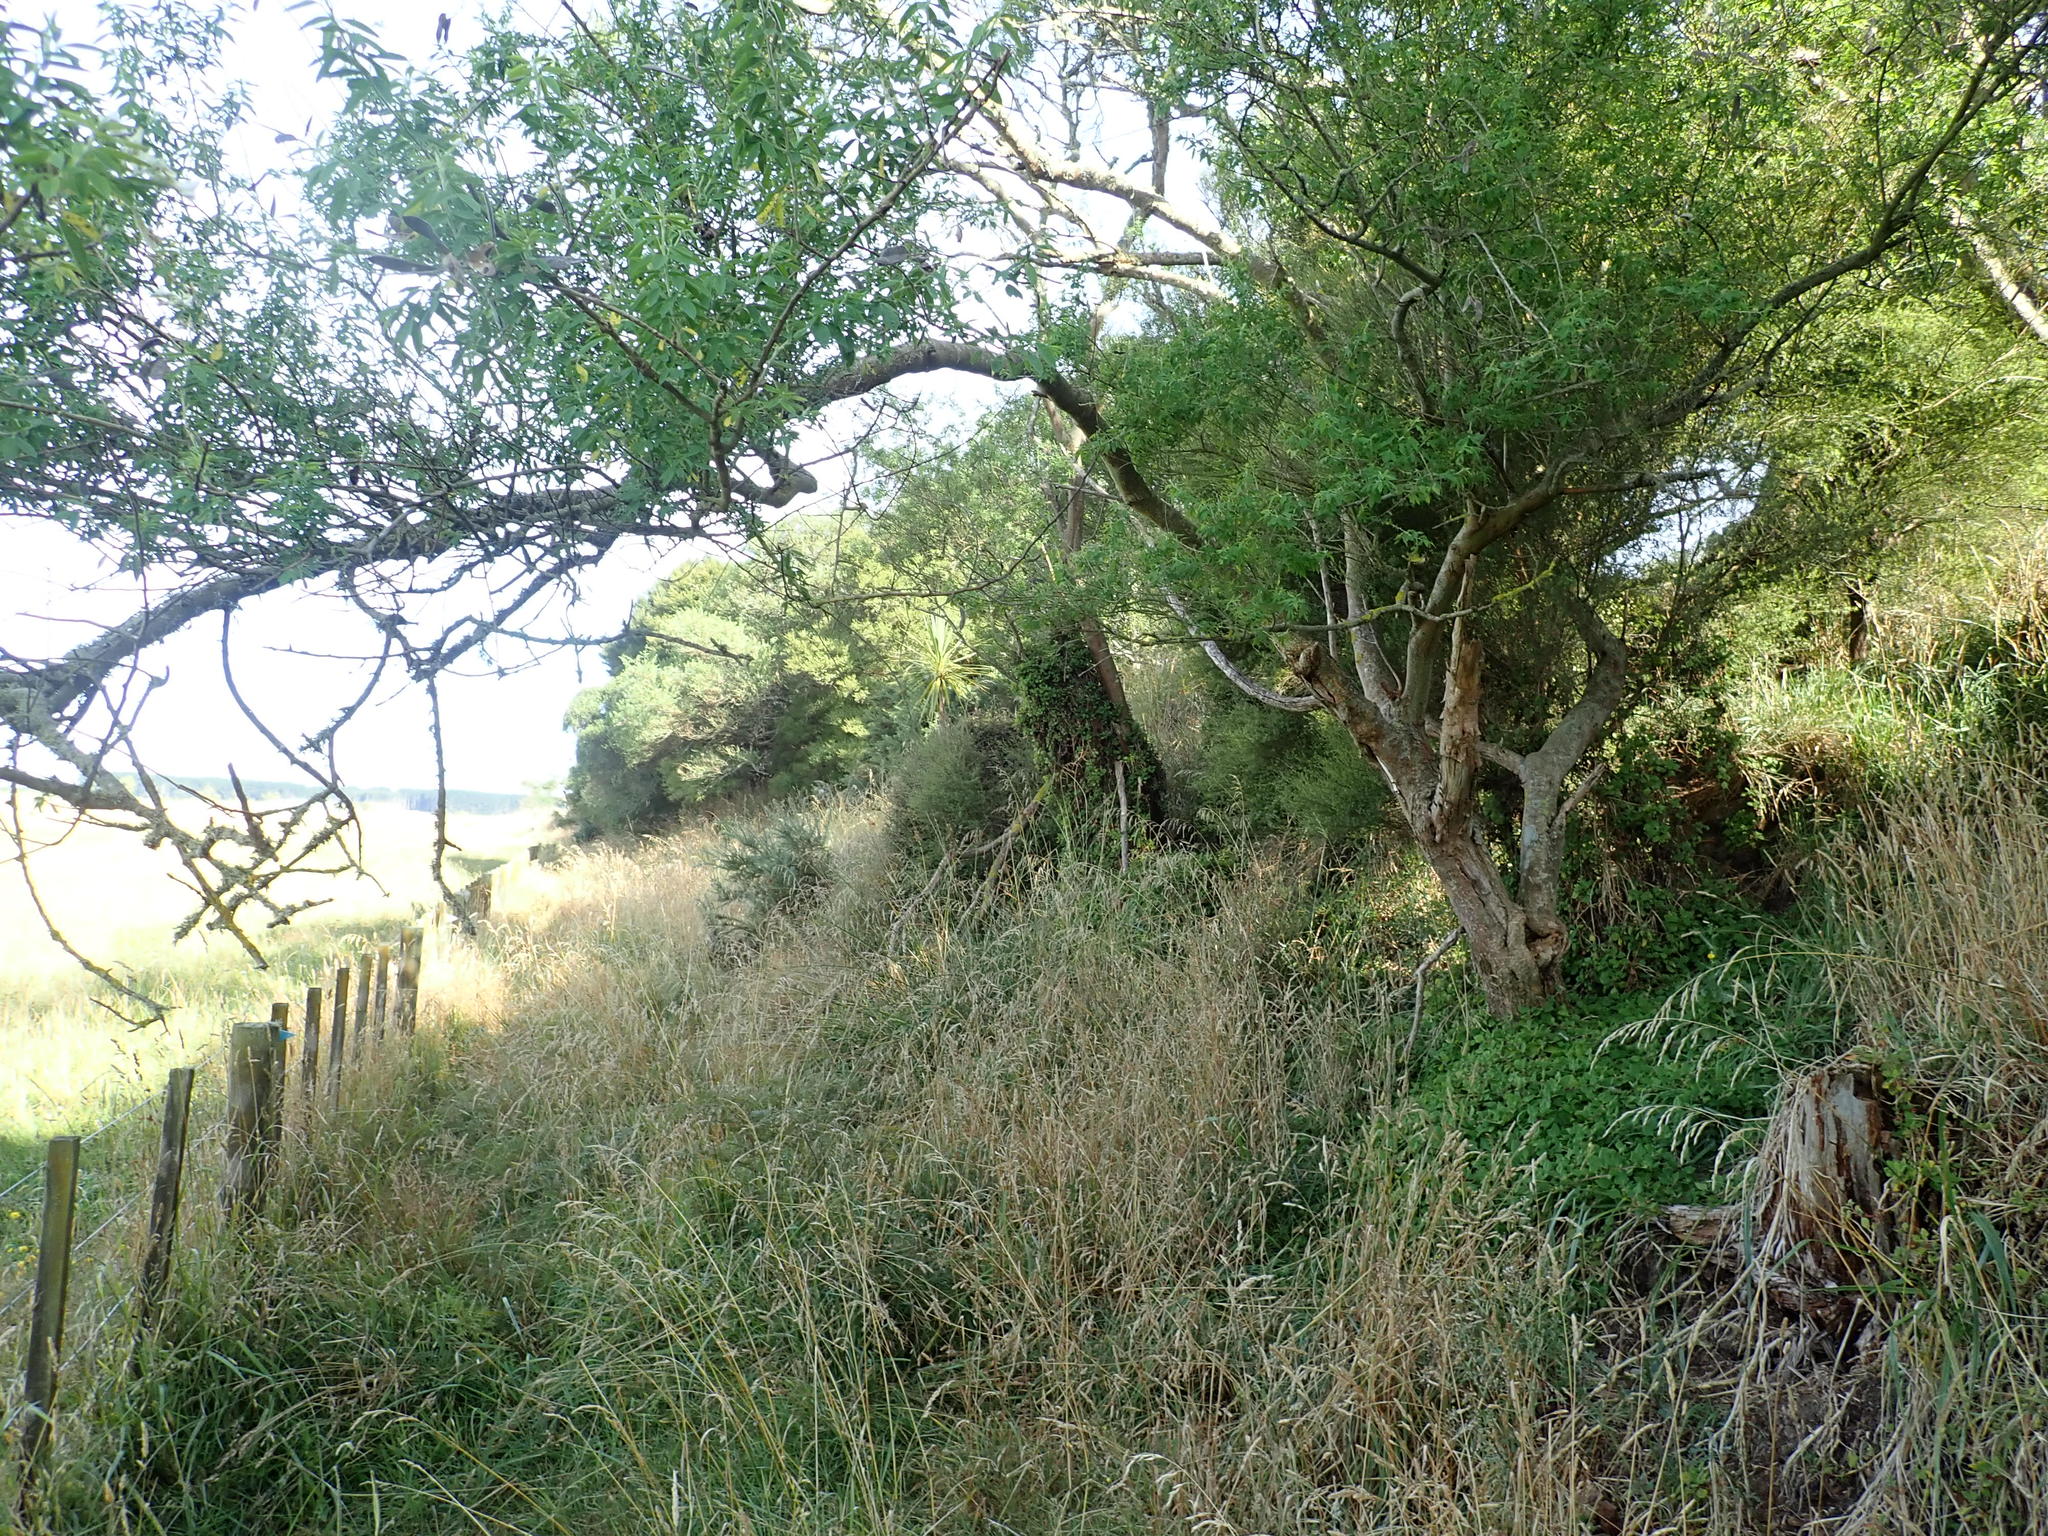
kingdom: Plantae
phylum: Tracheophyta
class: Magnoliopsida
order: Fabales
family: Fabaceae
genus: Chamaecytisus
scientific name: Chamaecytisus prolifer
